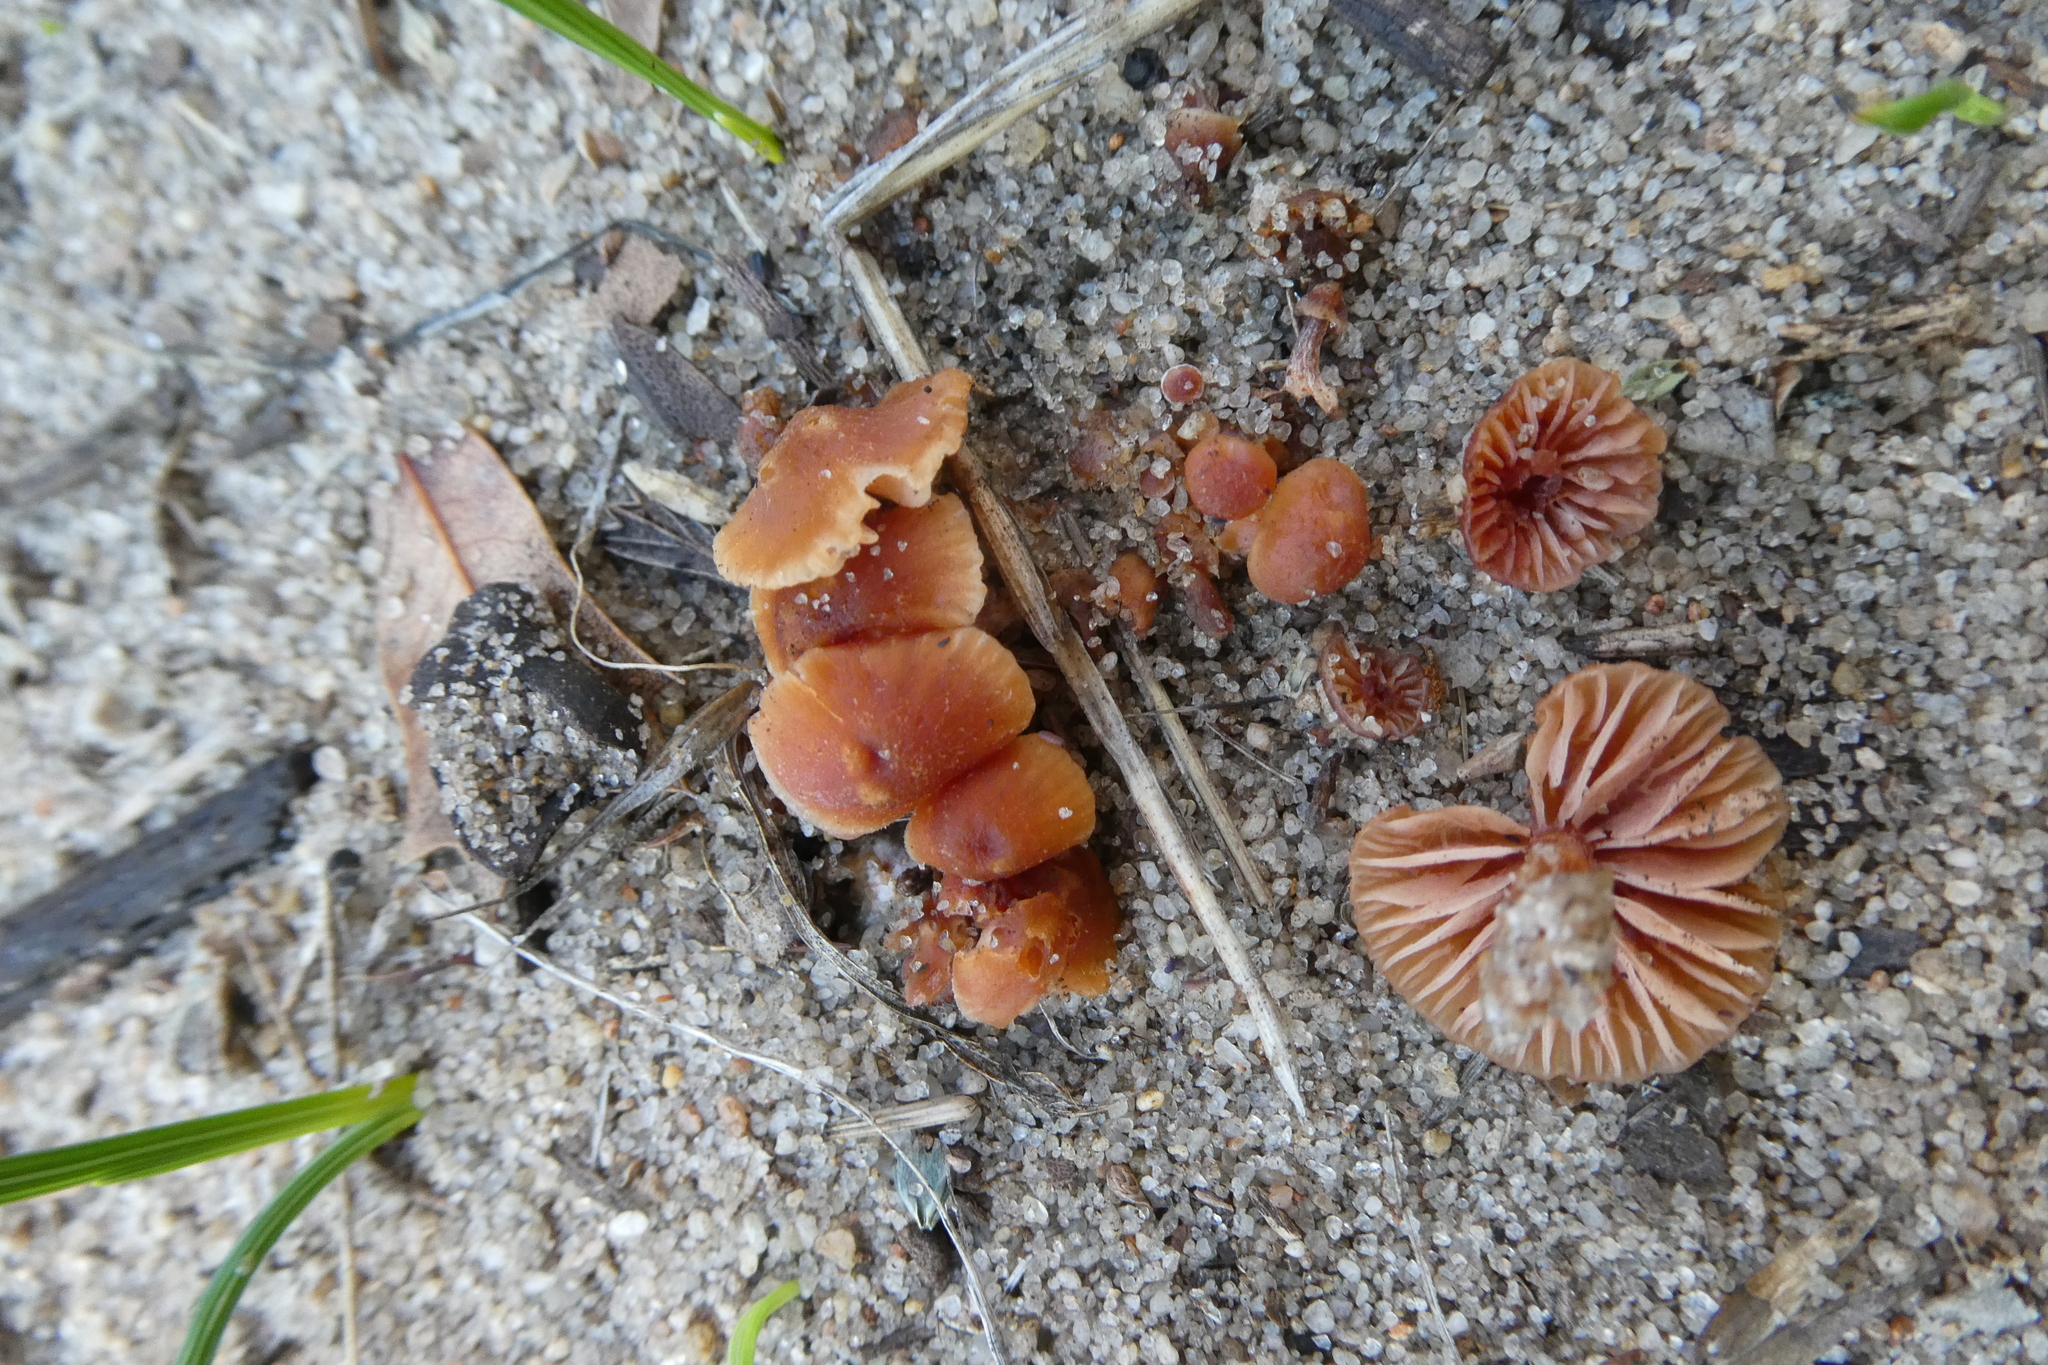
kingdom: Fungi
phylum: Basidiomycota
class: Agaricomycetes
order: Agaricales
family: Hydnangiaceae
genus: Laccaria
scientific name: Laccaria lateritia
